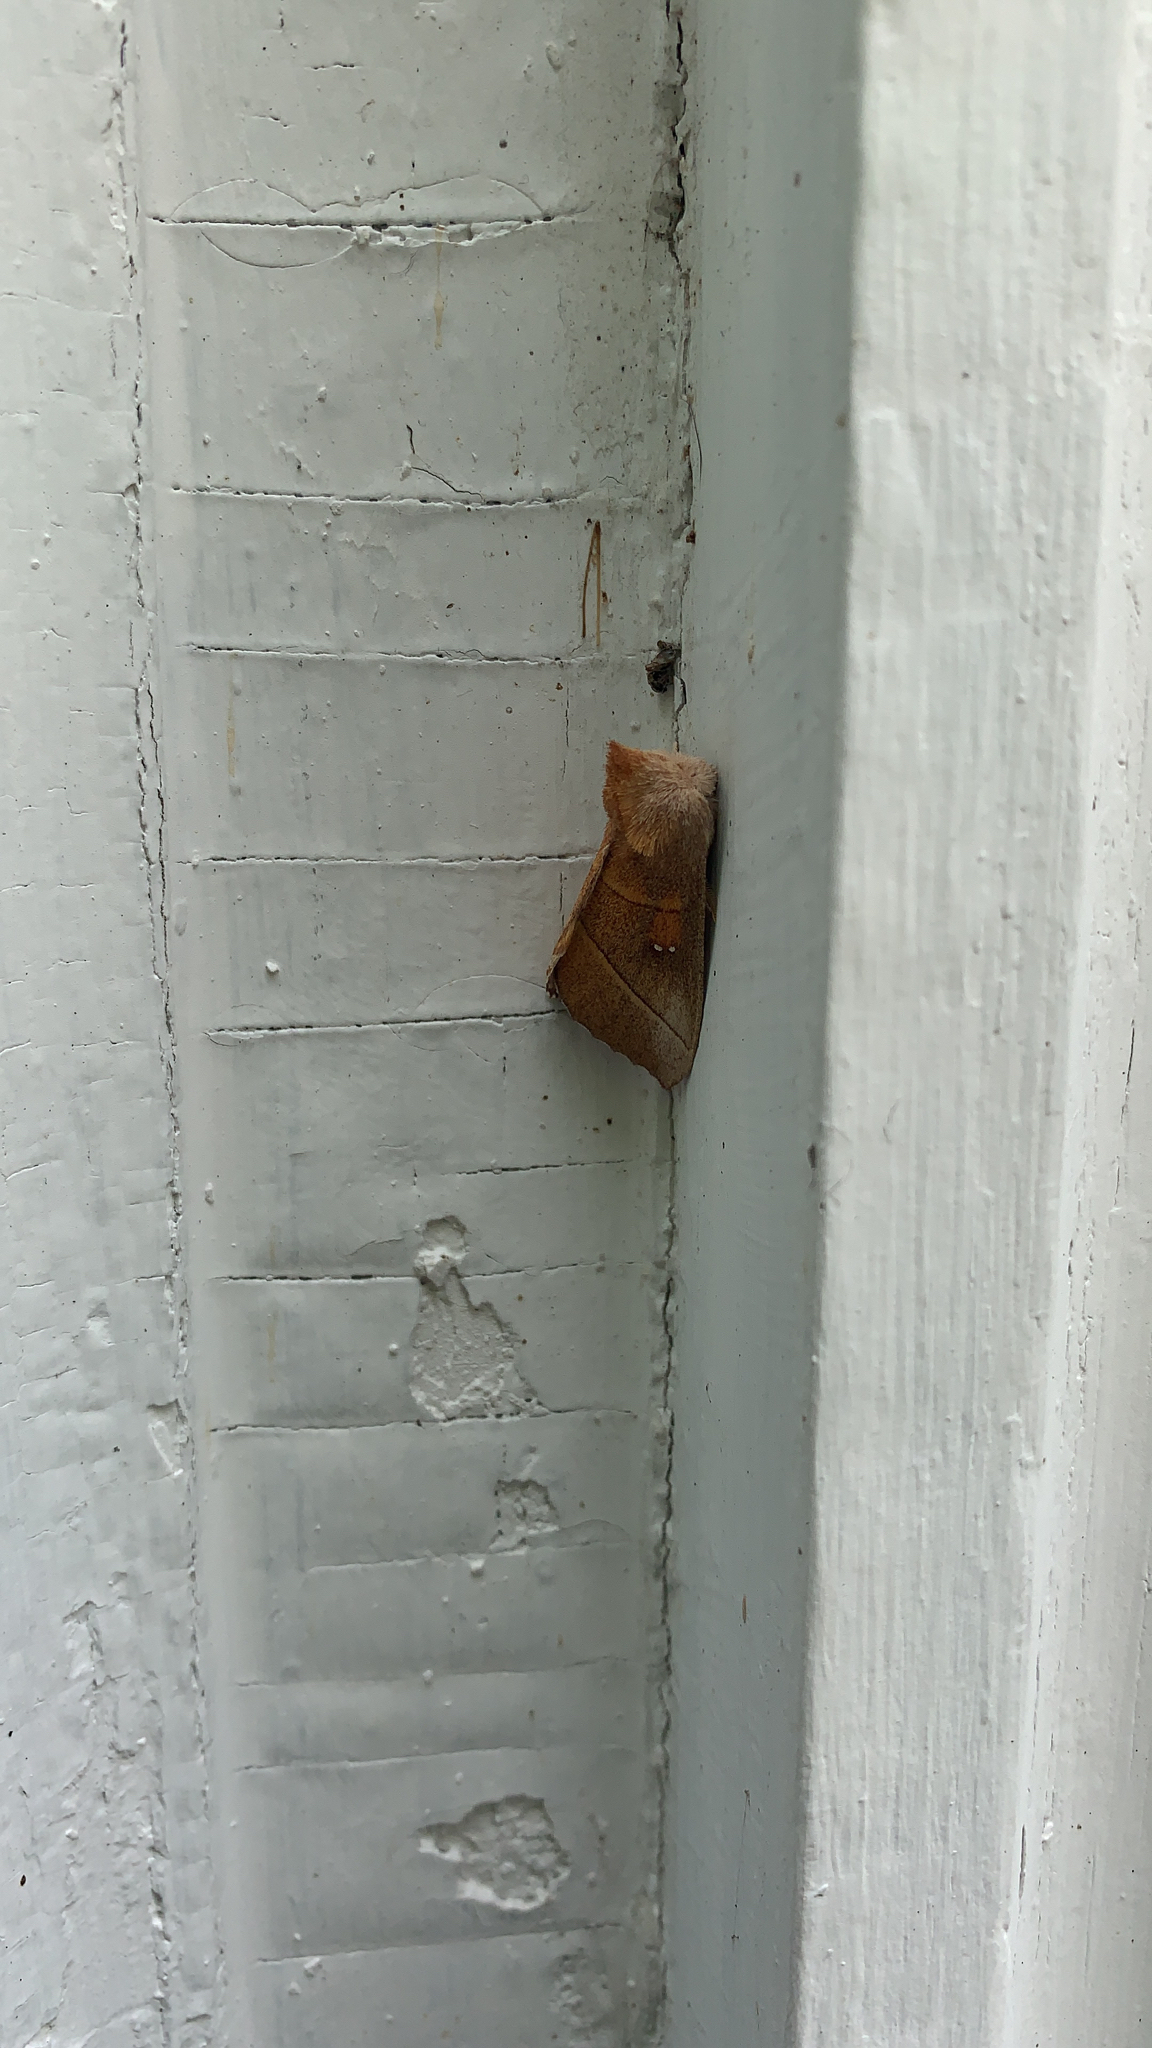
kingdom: Animalia
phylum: Arthropoda
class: Insecta
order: Lepidoptera
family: Notodontidae
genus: Nadata
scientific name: Nadata gibbosa
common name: White-dotted prominent
